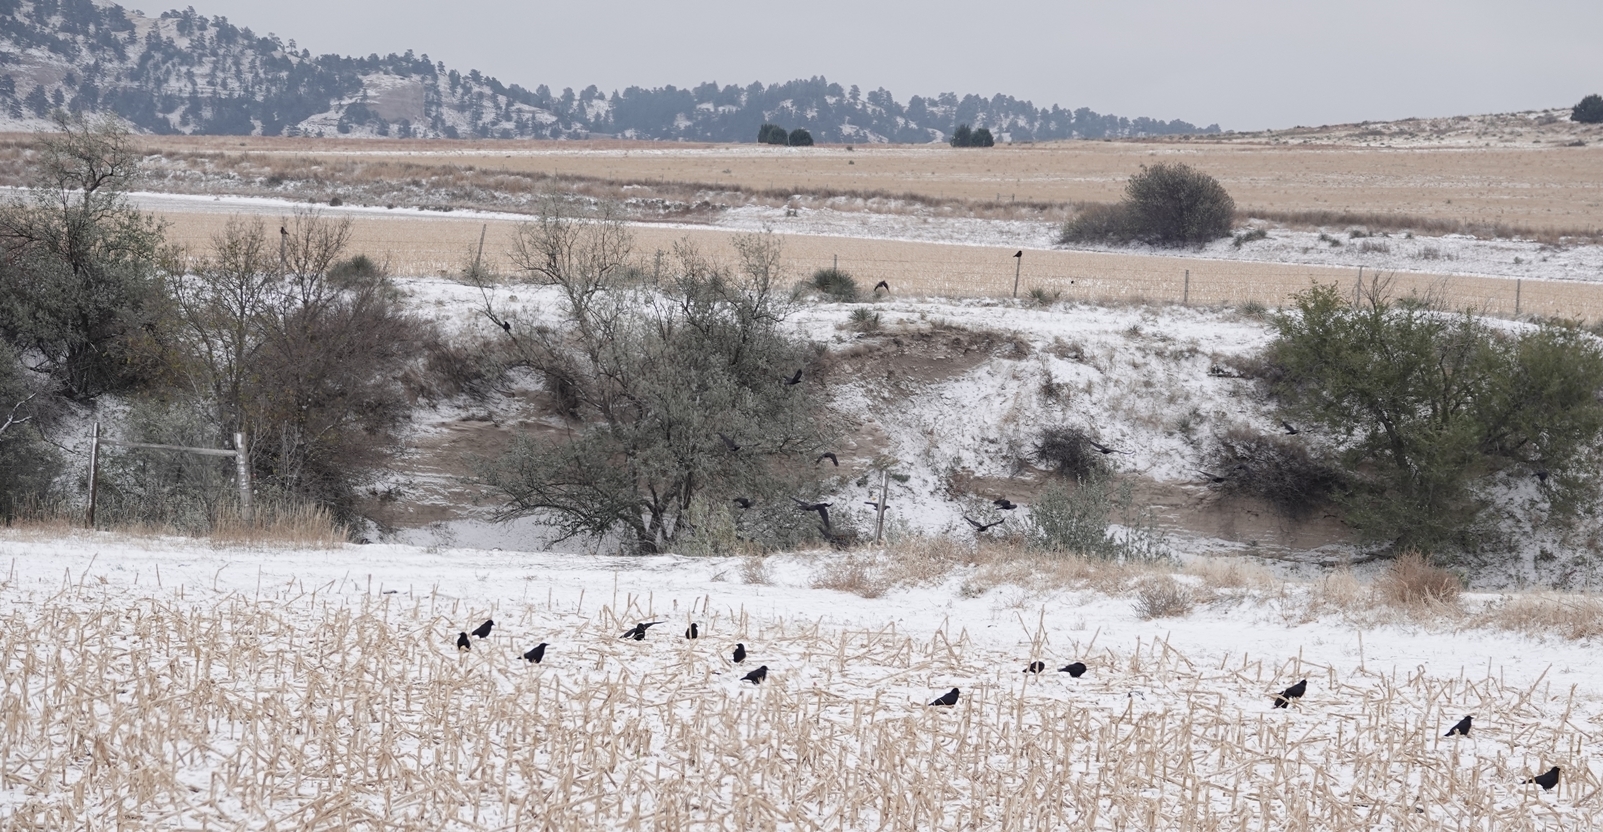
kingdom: Animalia
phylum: Chordata
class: Aves
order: Passeriformes
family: Corvidae
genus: Corvus
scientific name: Corvus brachyrhynchos
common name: American crow
